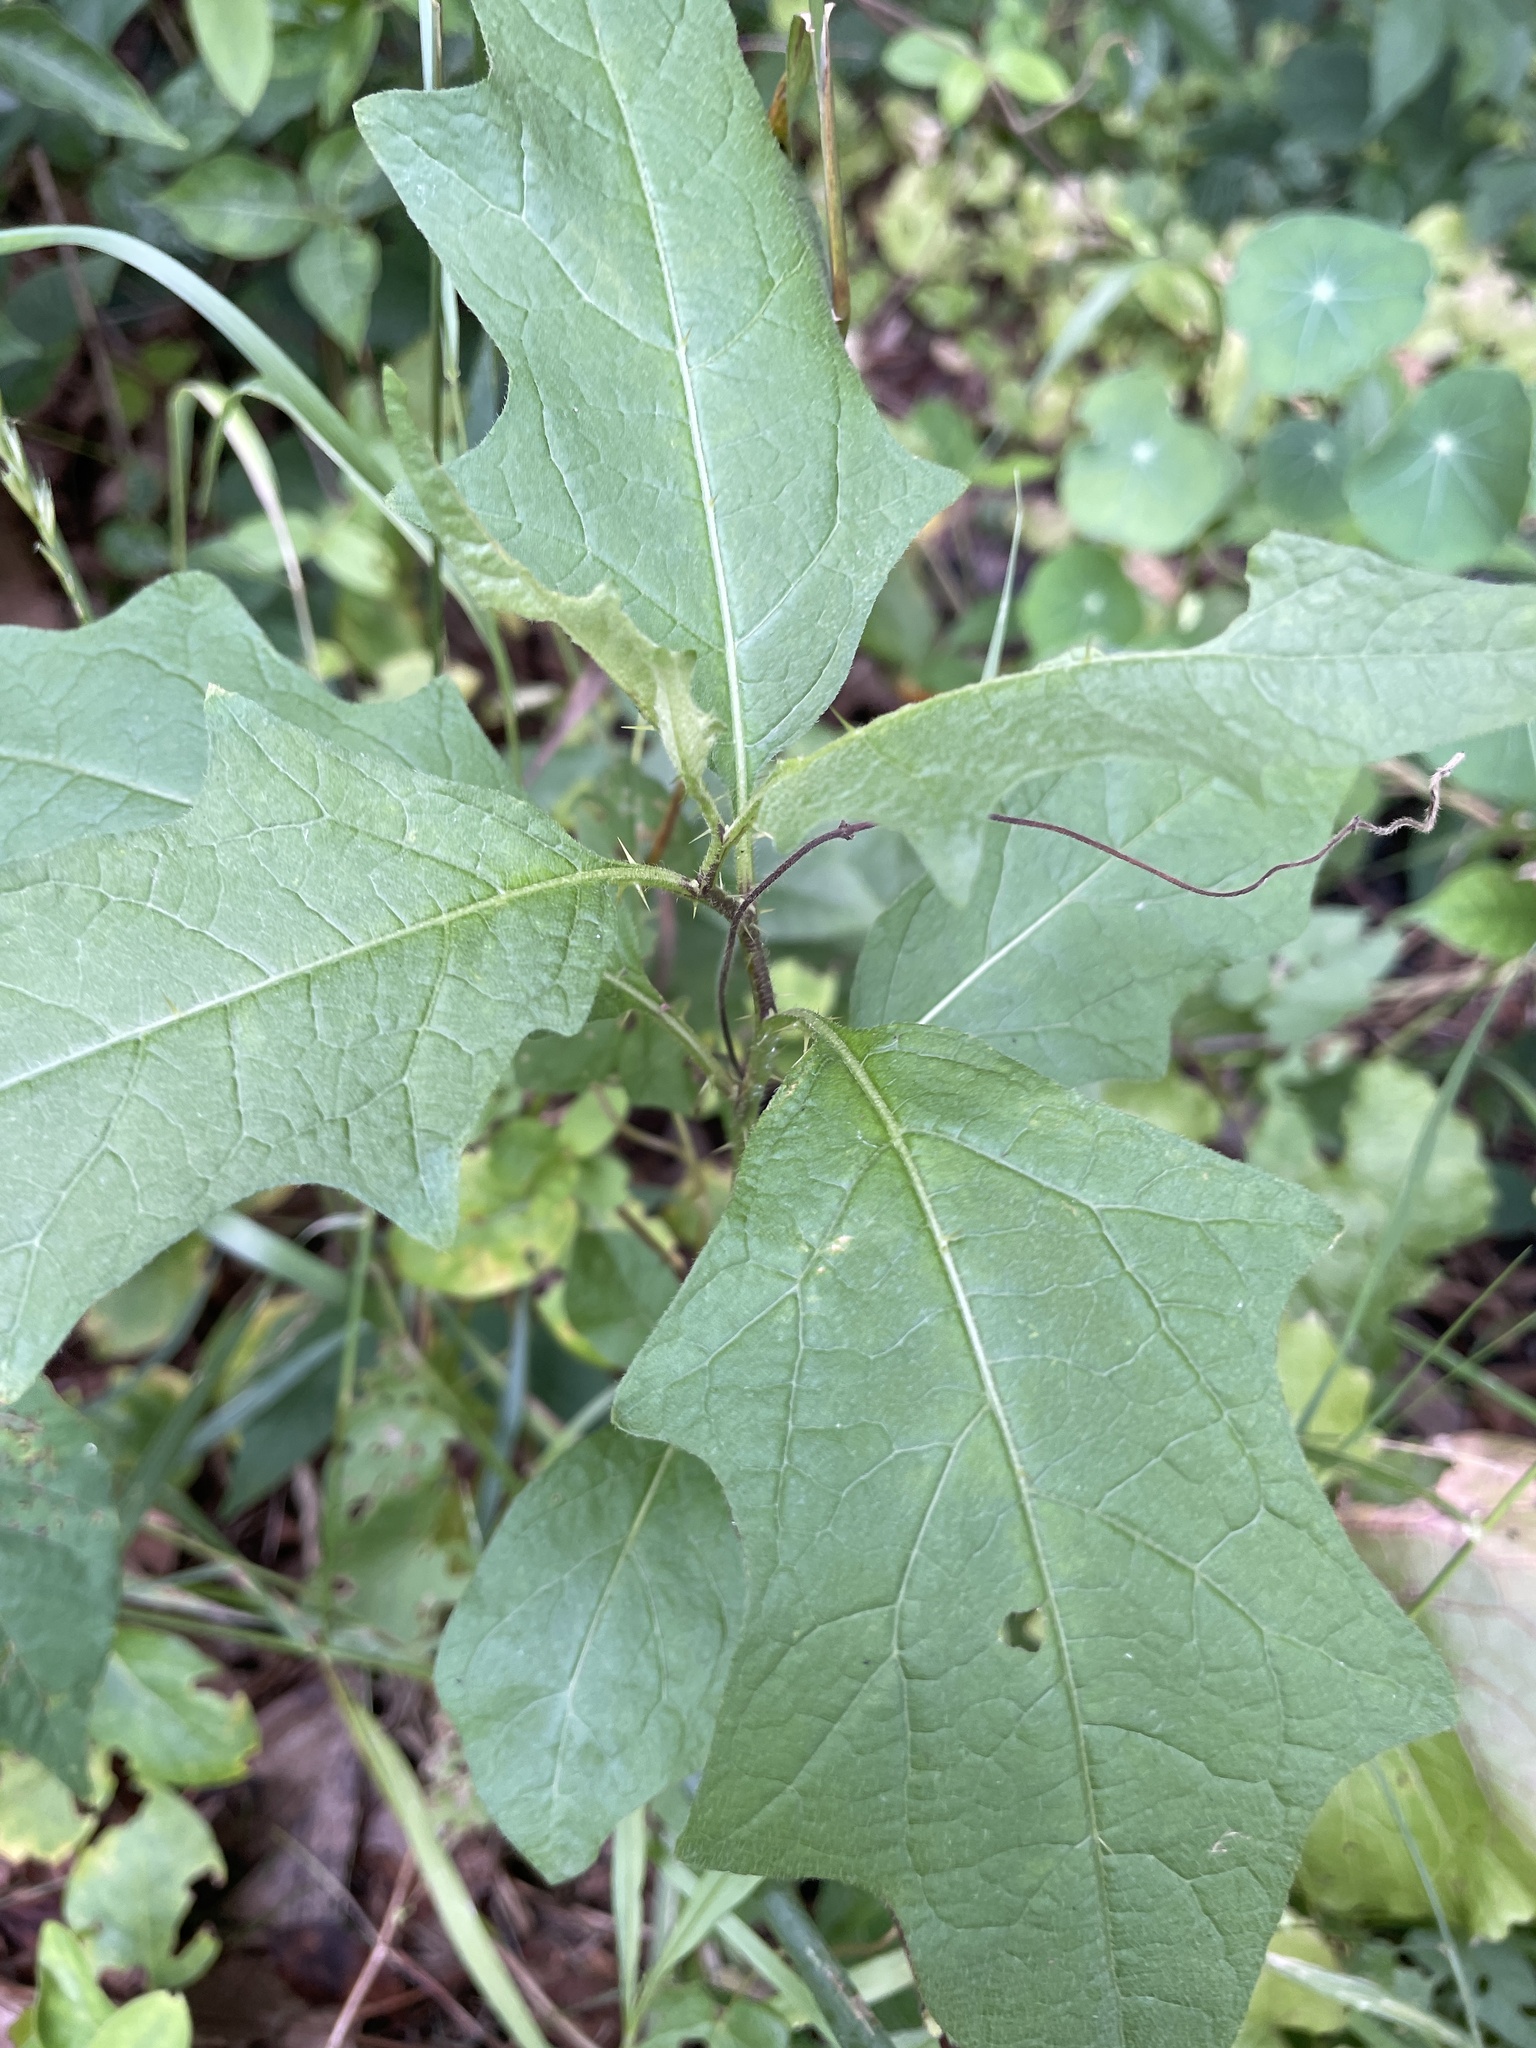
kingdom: Plantae
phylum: Tracheophyta
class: Magnoliopsida
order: Solanales
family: Solanaceae
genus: Solanum
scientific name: Solanum carolinense
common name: Horse-nettle
